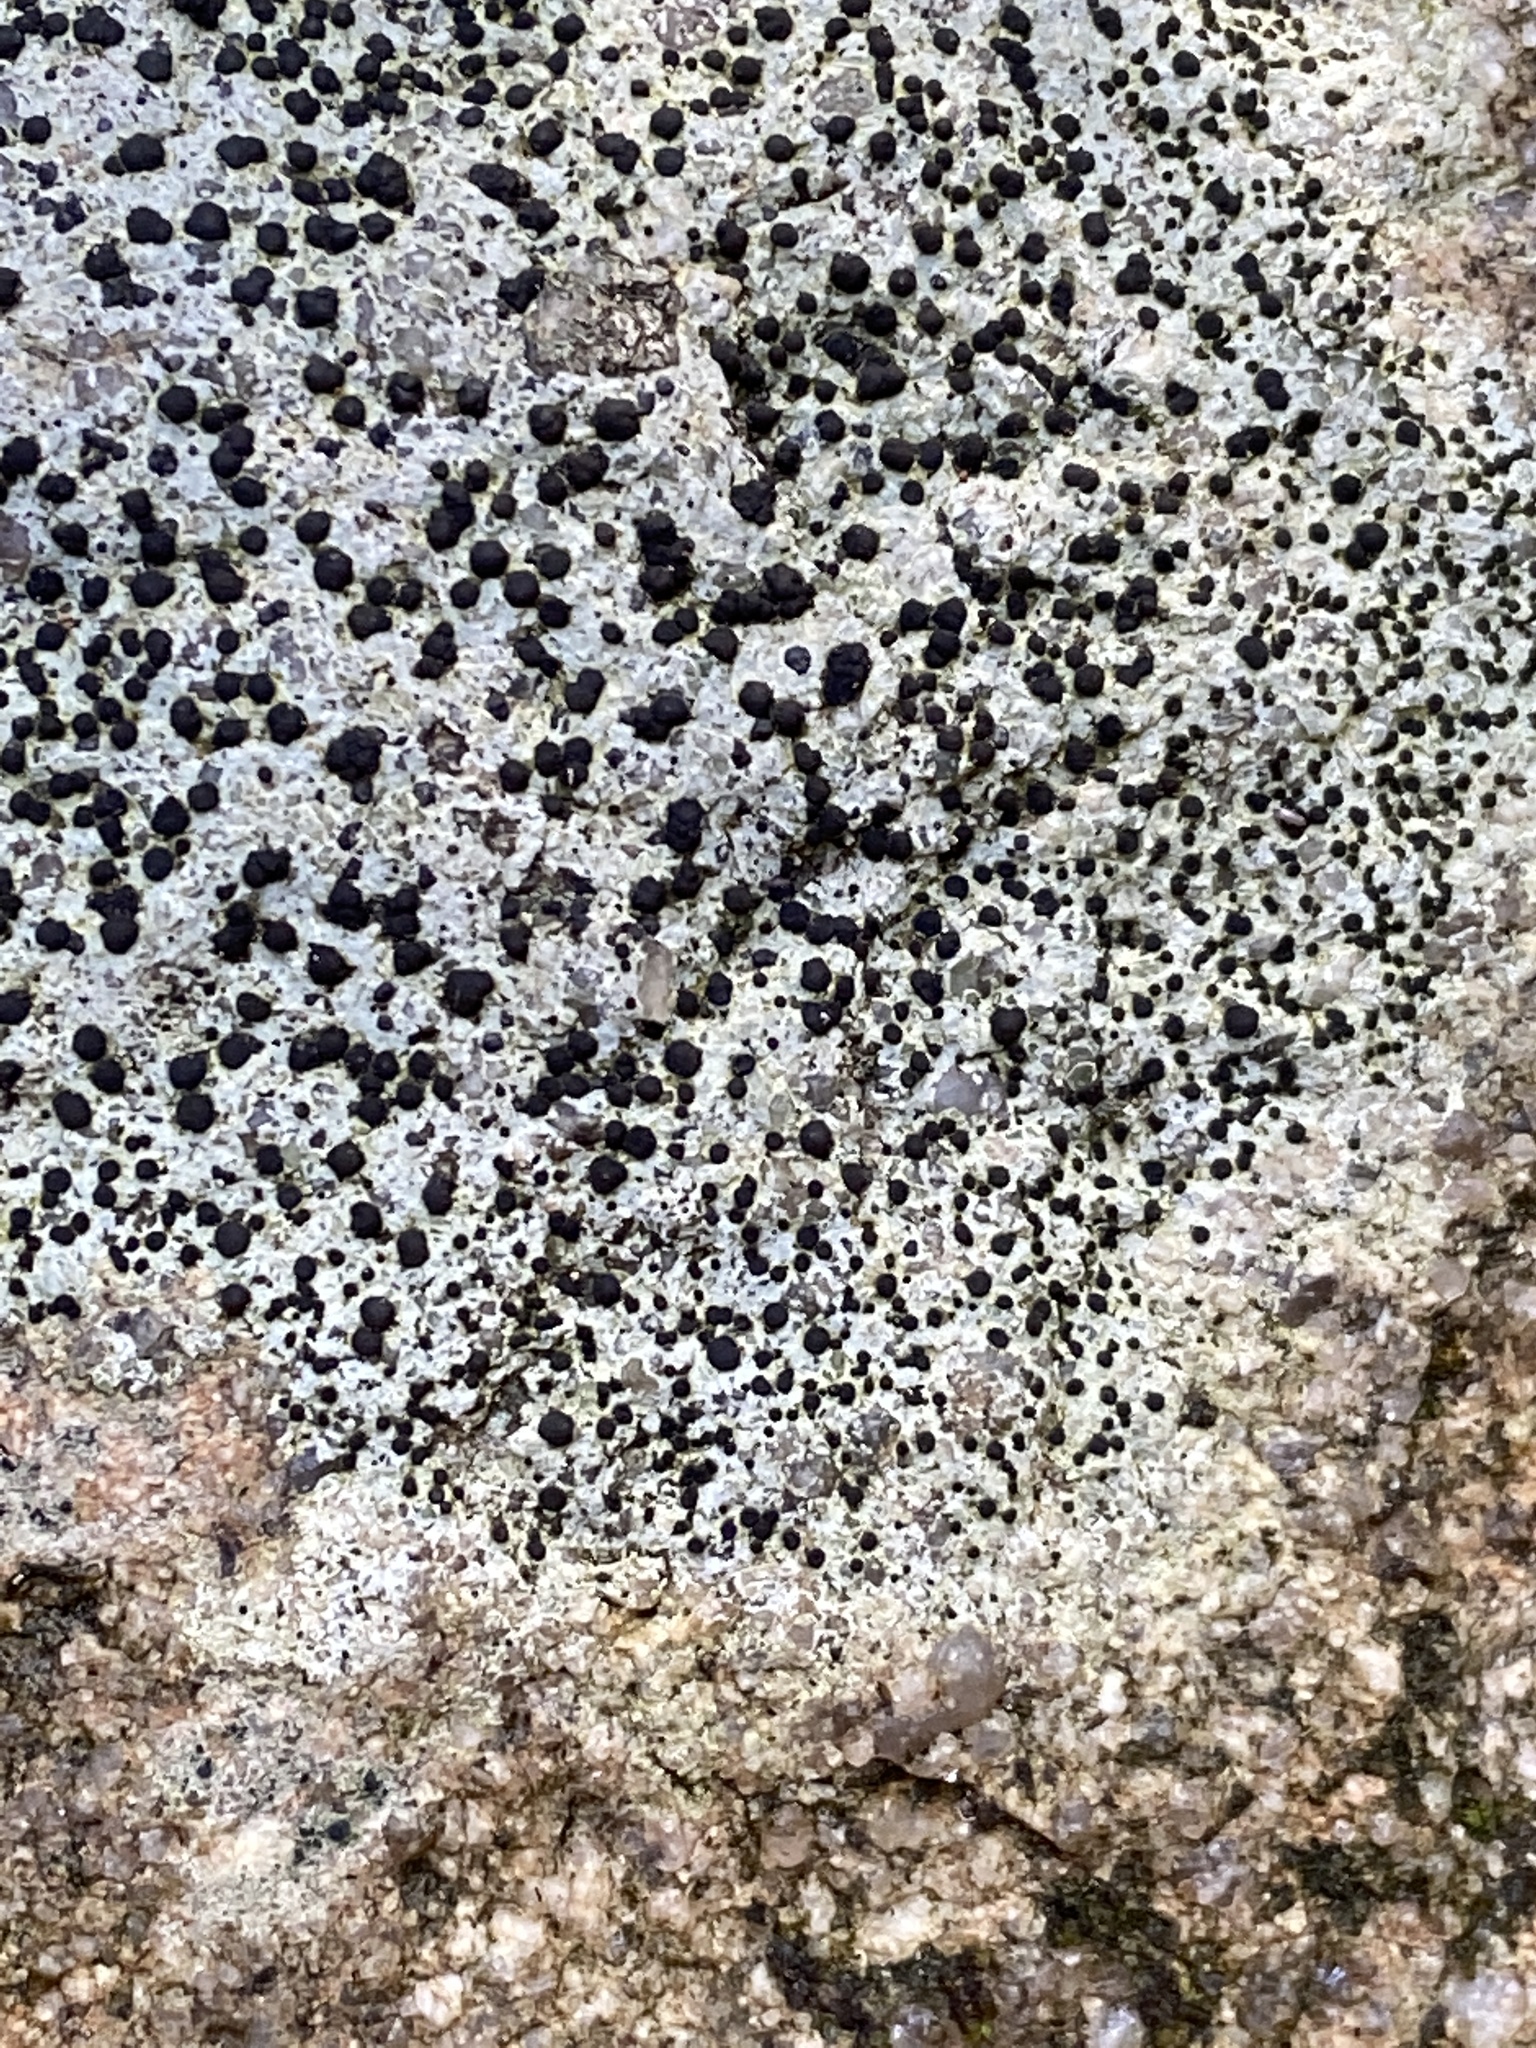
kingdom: Fungi
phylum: Ascomycota
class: Lecanoromycetes
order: Lecanorales
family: Lecanoraceae
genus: Lecidella
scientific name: Lecidella stigmatea
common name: Limestone disc lichen
